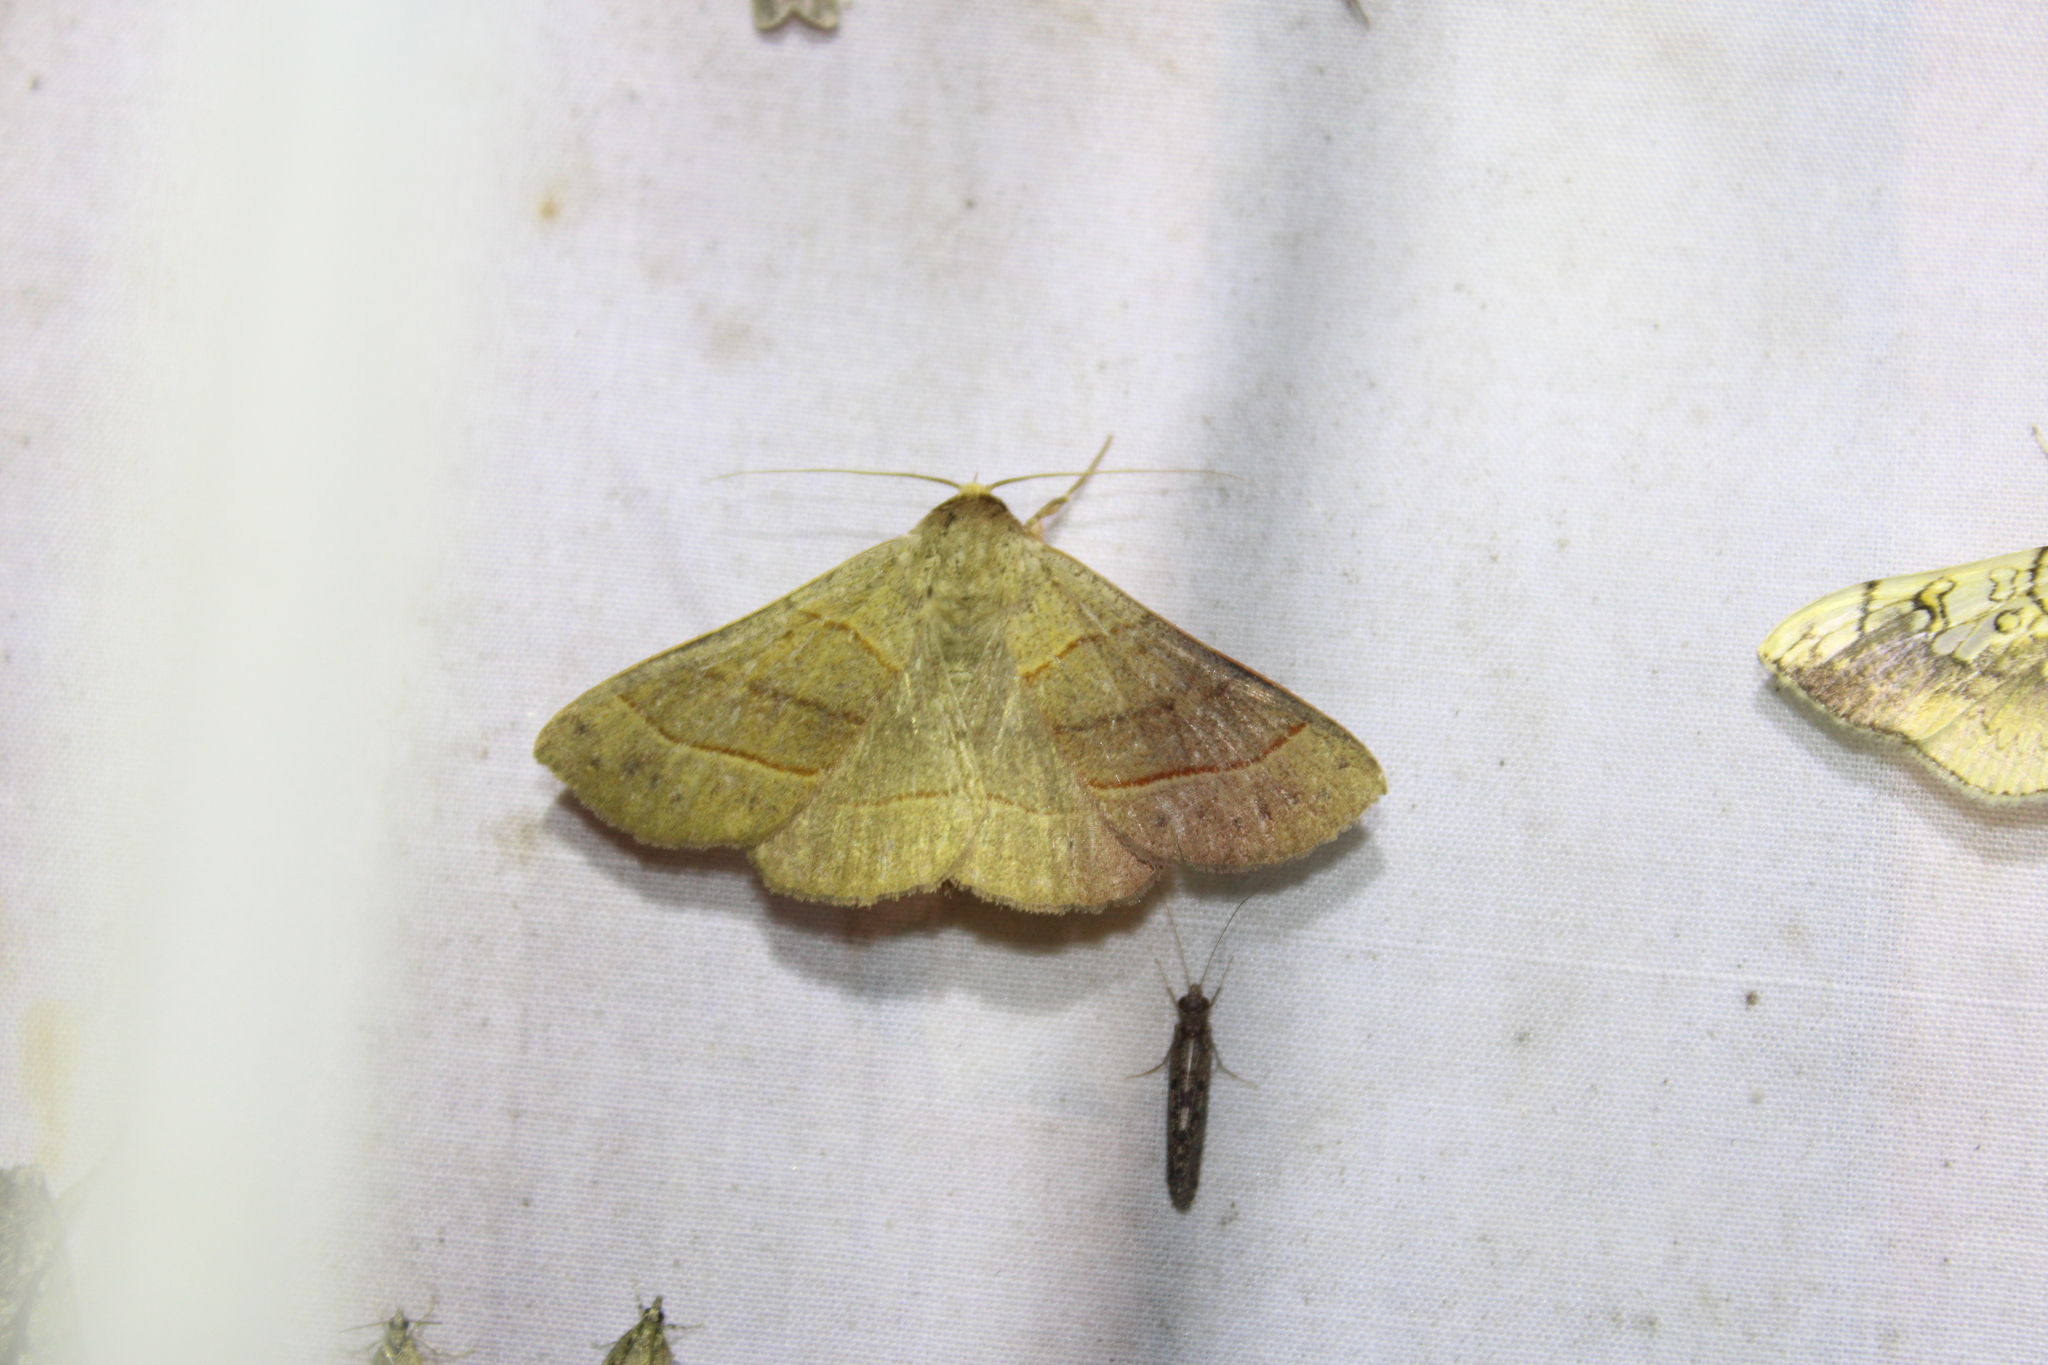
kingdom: Animalia
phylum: Arthropoda
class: Insecta
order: Lepidoptera
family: Erebidae
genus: Panopoda
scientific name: Panopoda rufimargo
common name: Red-lined panopoda moth
